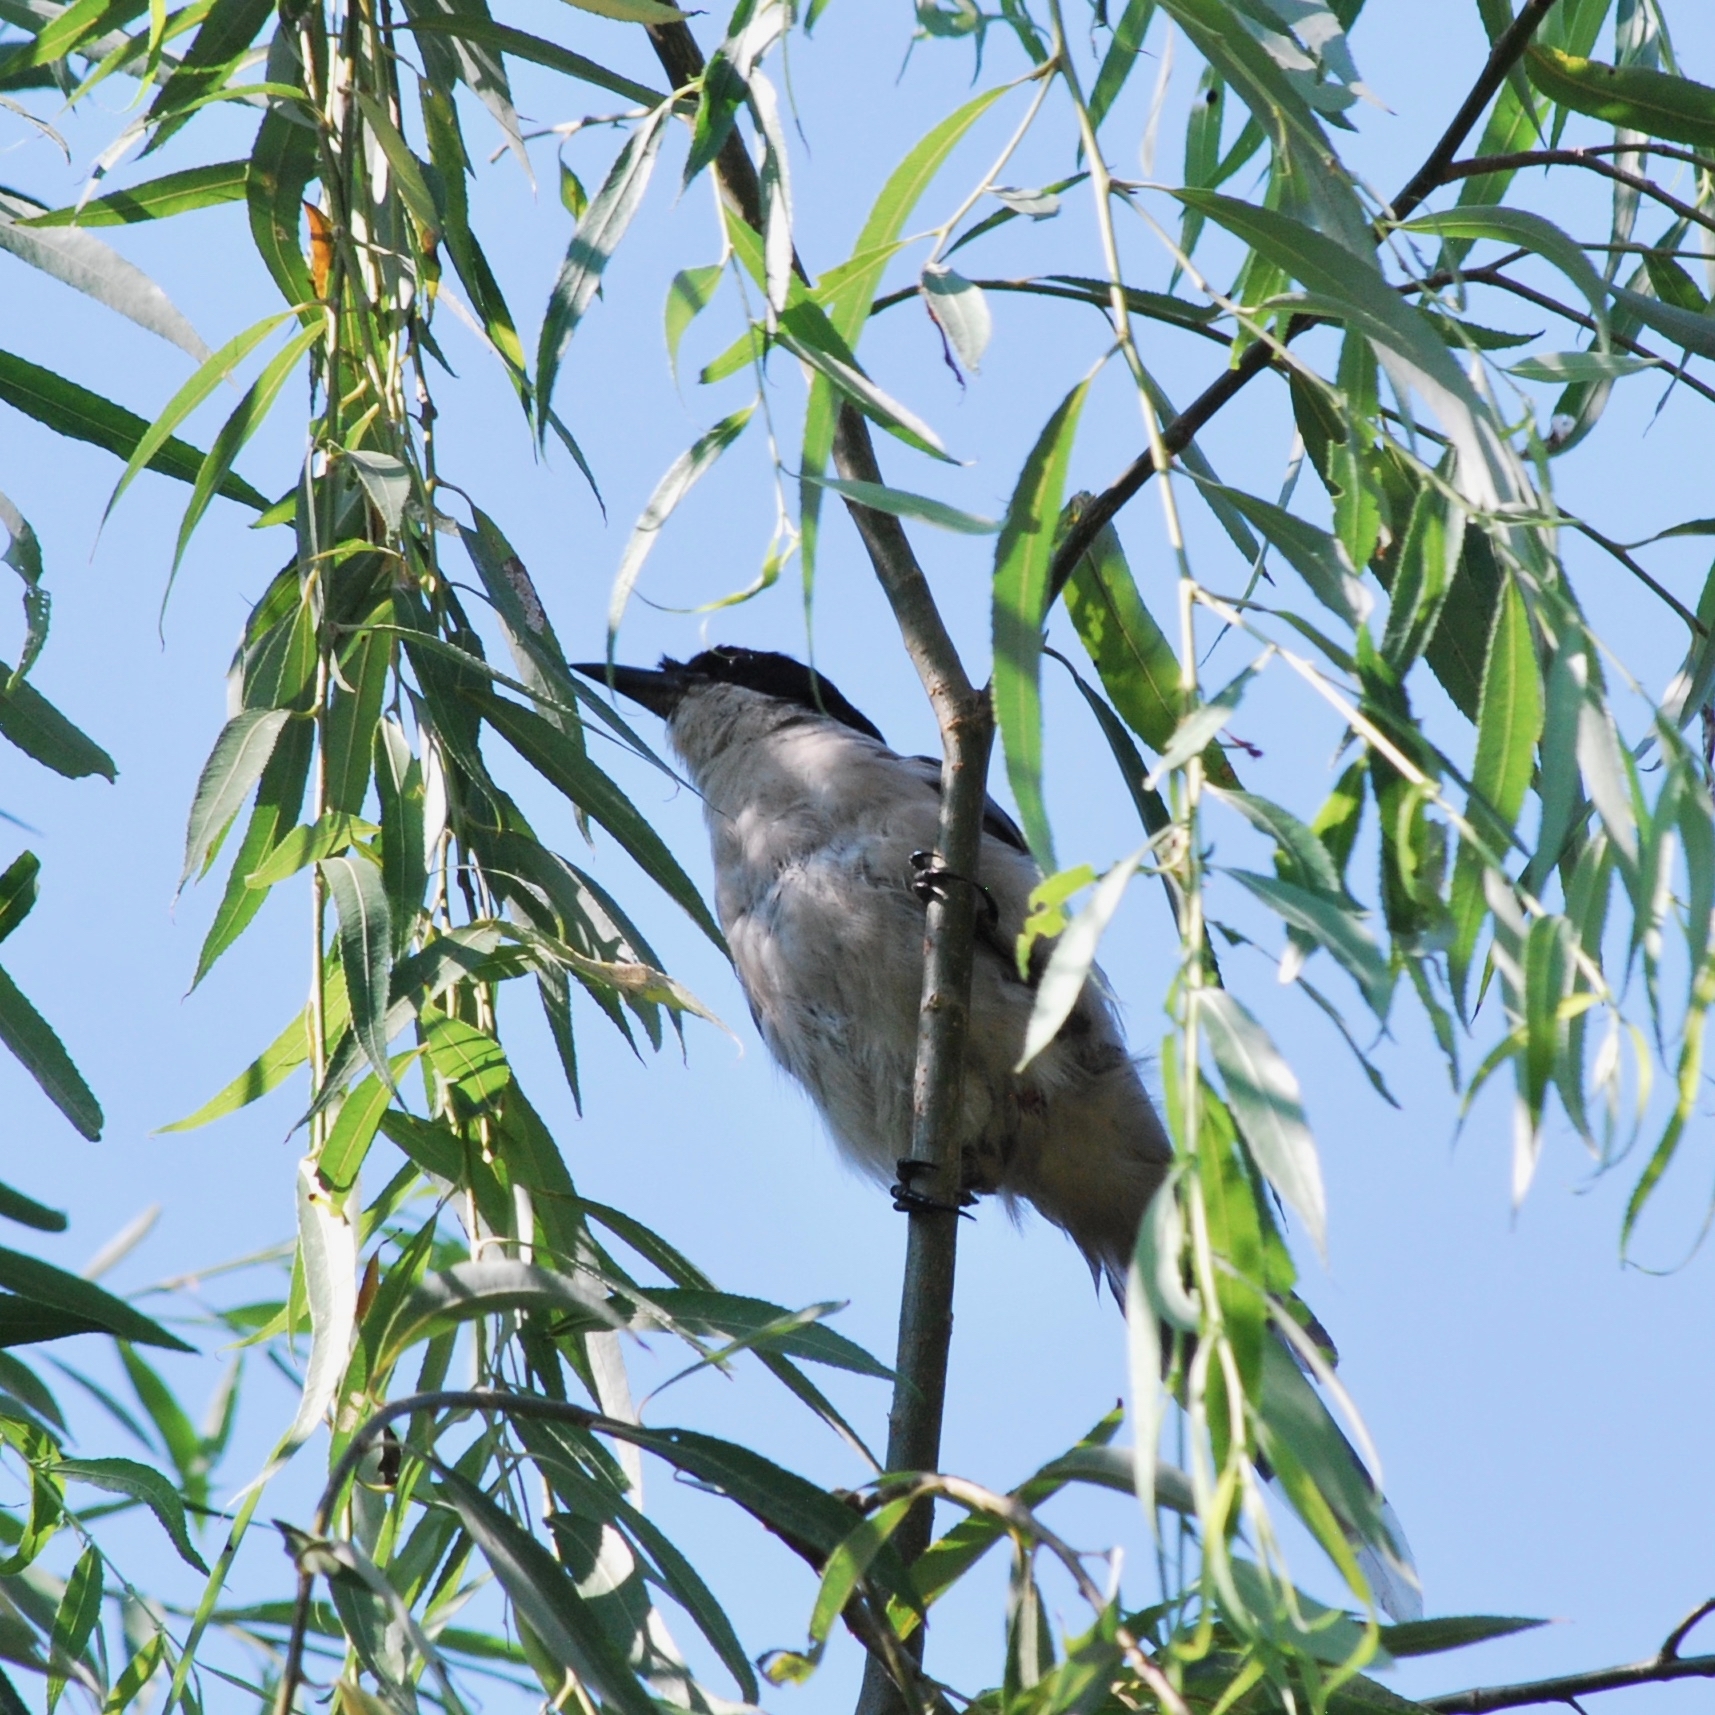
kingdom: Animalia
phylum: Chordata
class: Aves
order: Passeriformes
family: Corvidae
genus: Cyanopica
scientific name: Cyanopica cyanus
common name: Azure-winged magpie
